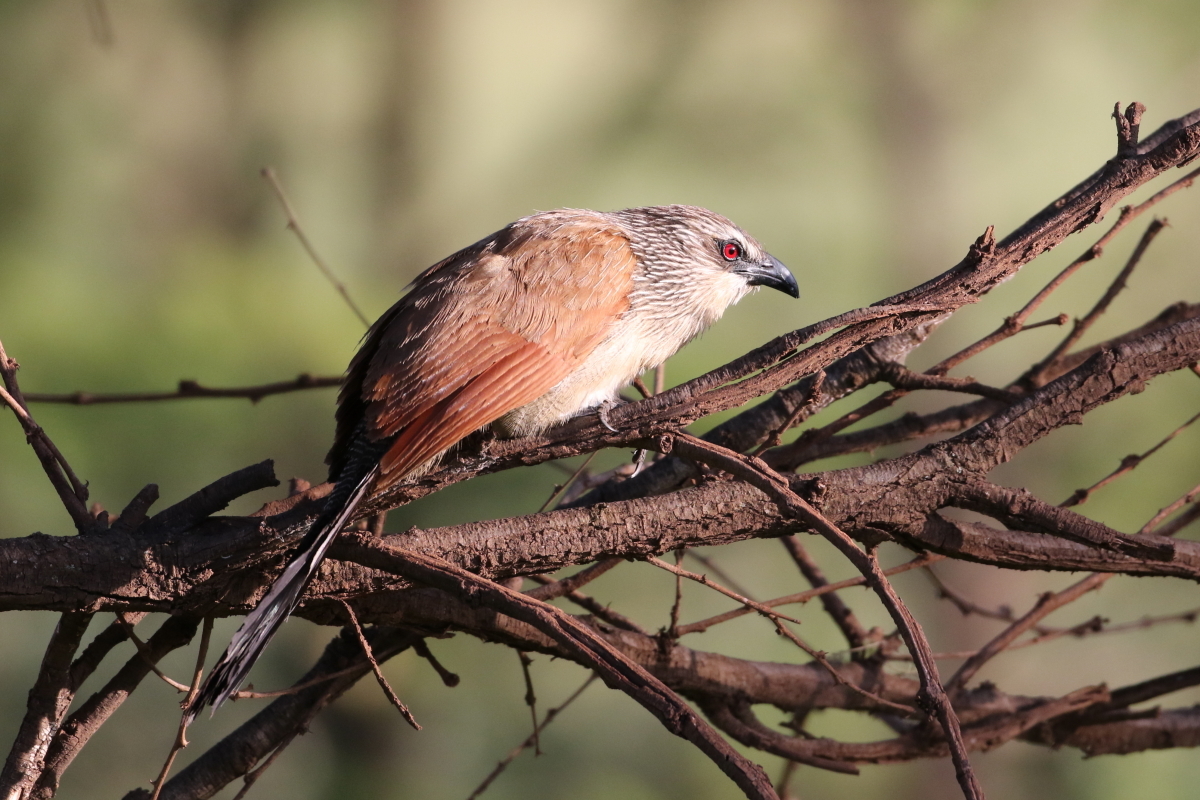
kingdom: Animalia
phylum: Chordata
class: Aves
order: Cuculiformes
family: Cuculidae
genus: Centropus
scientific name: Centropus superciliosus
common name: White-browed coucal
